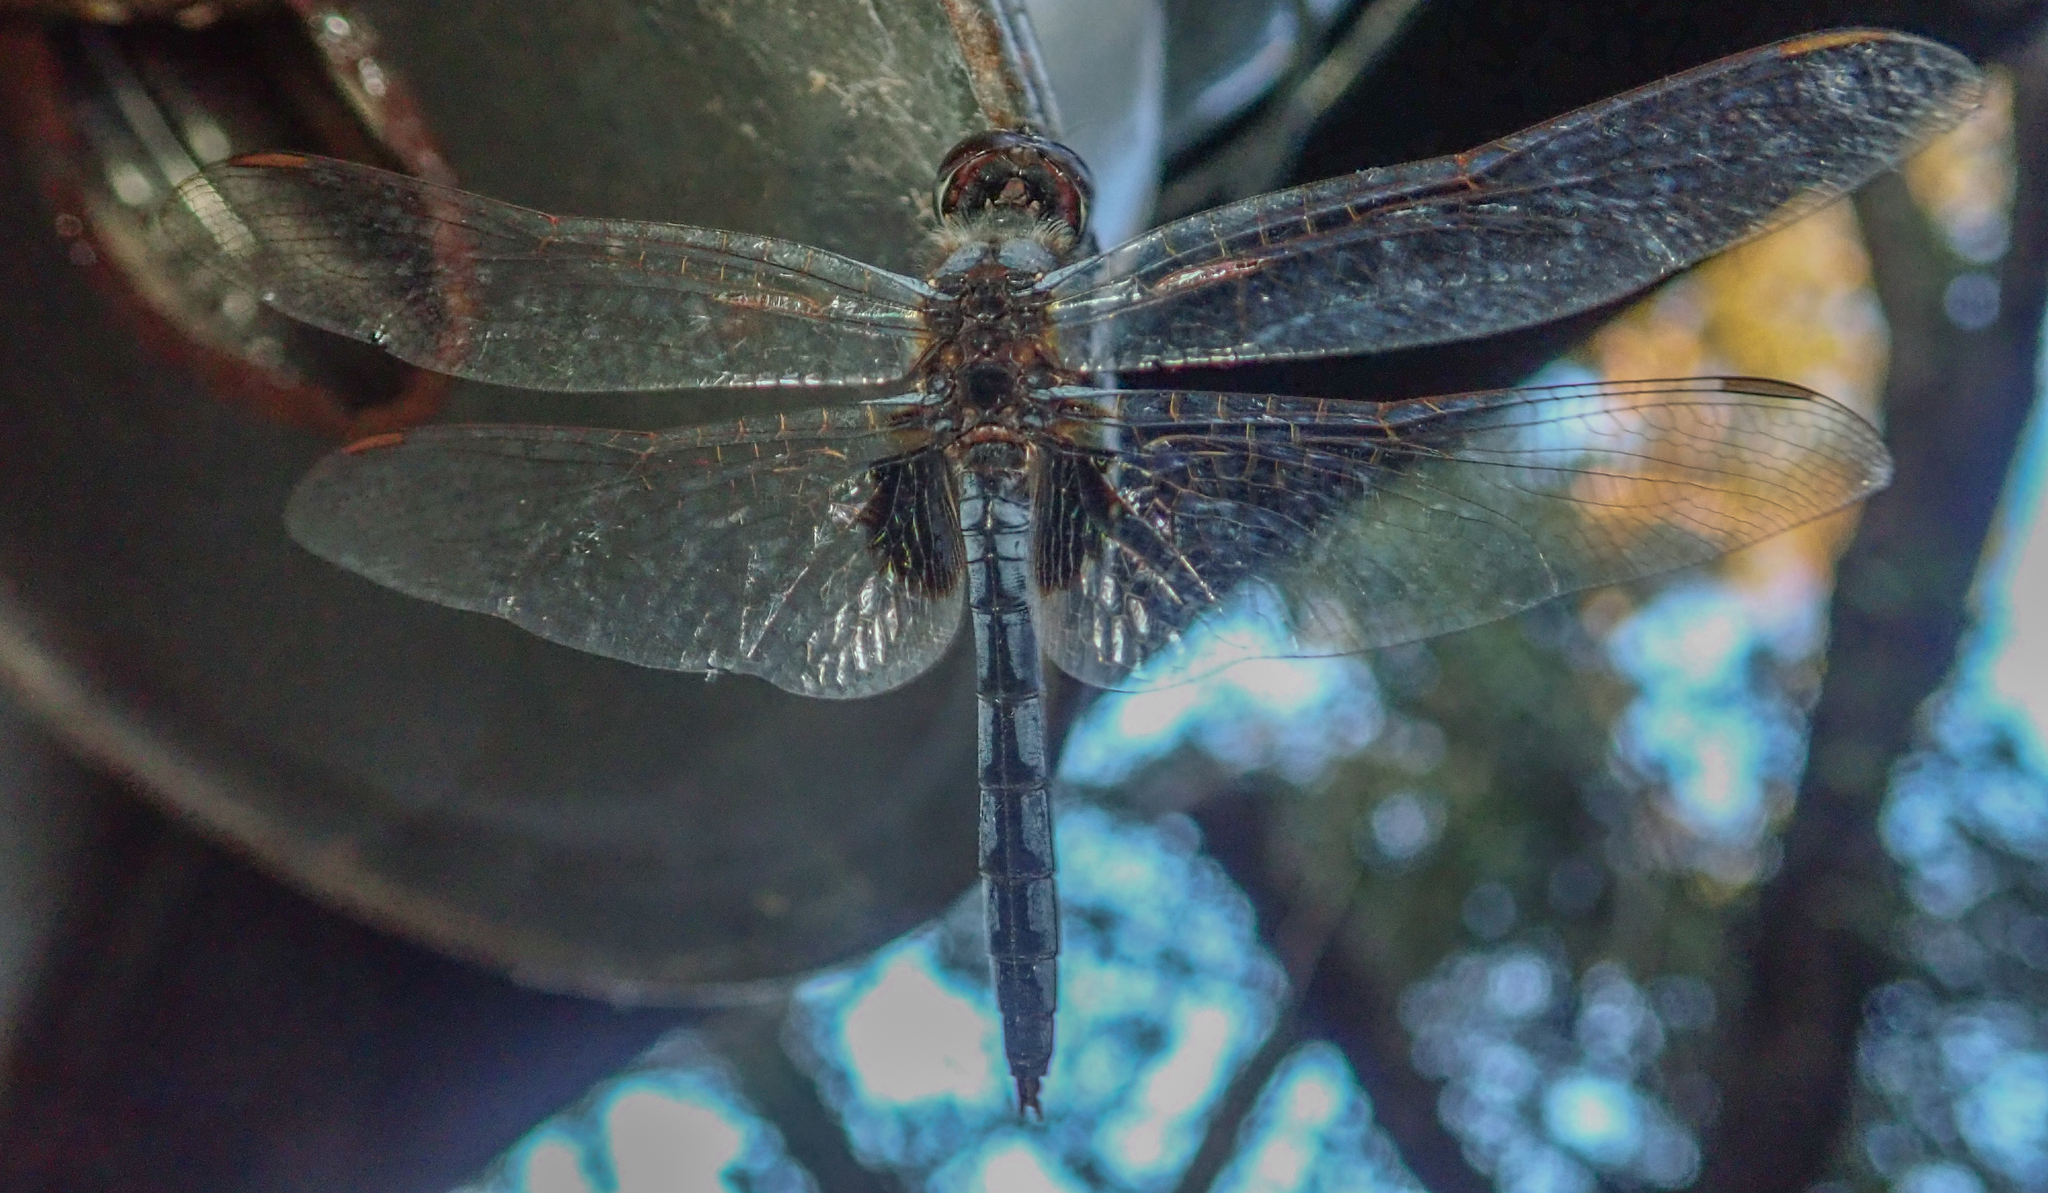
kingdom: Animalia
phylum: Arthropoda
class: Insecta
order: Odonata
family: Libellulidae
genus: Urothemis
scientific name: Urothemis edwardsii
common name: Blue basker
